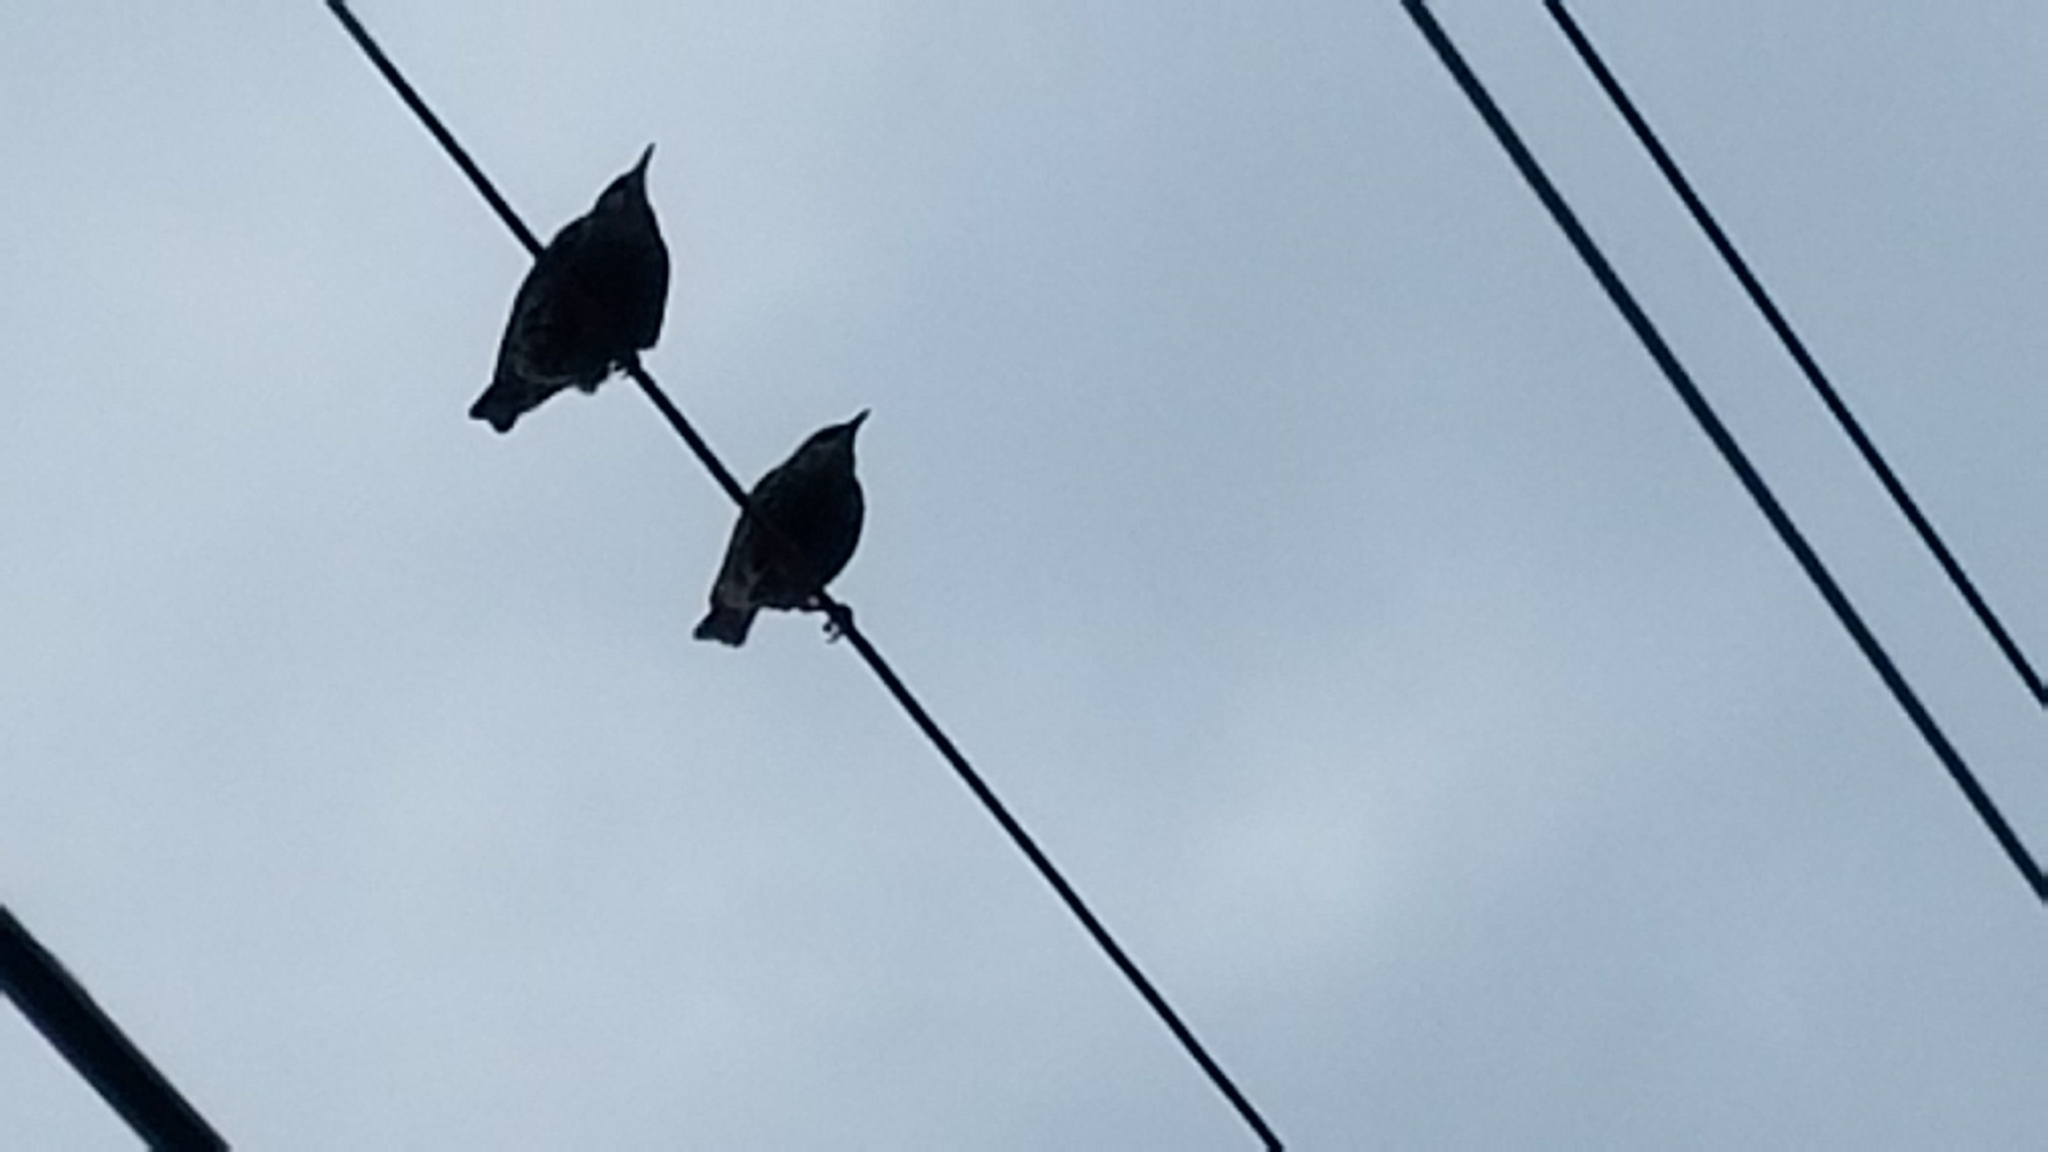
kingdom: Animalia
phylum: Chordata
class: Aves
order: Passeriformes
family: Sturnidae
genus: Sturnus
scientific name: Sturnus vulgaris
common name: Common starling
